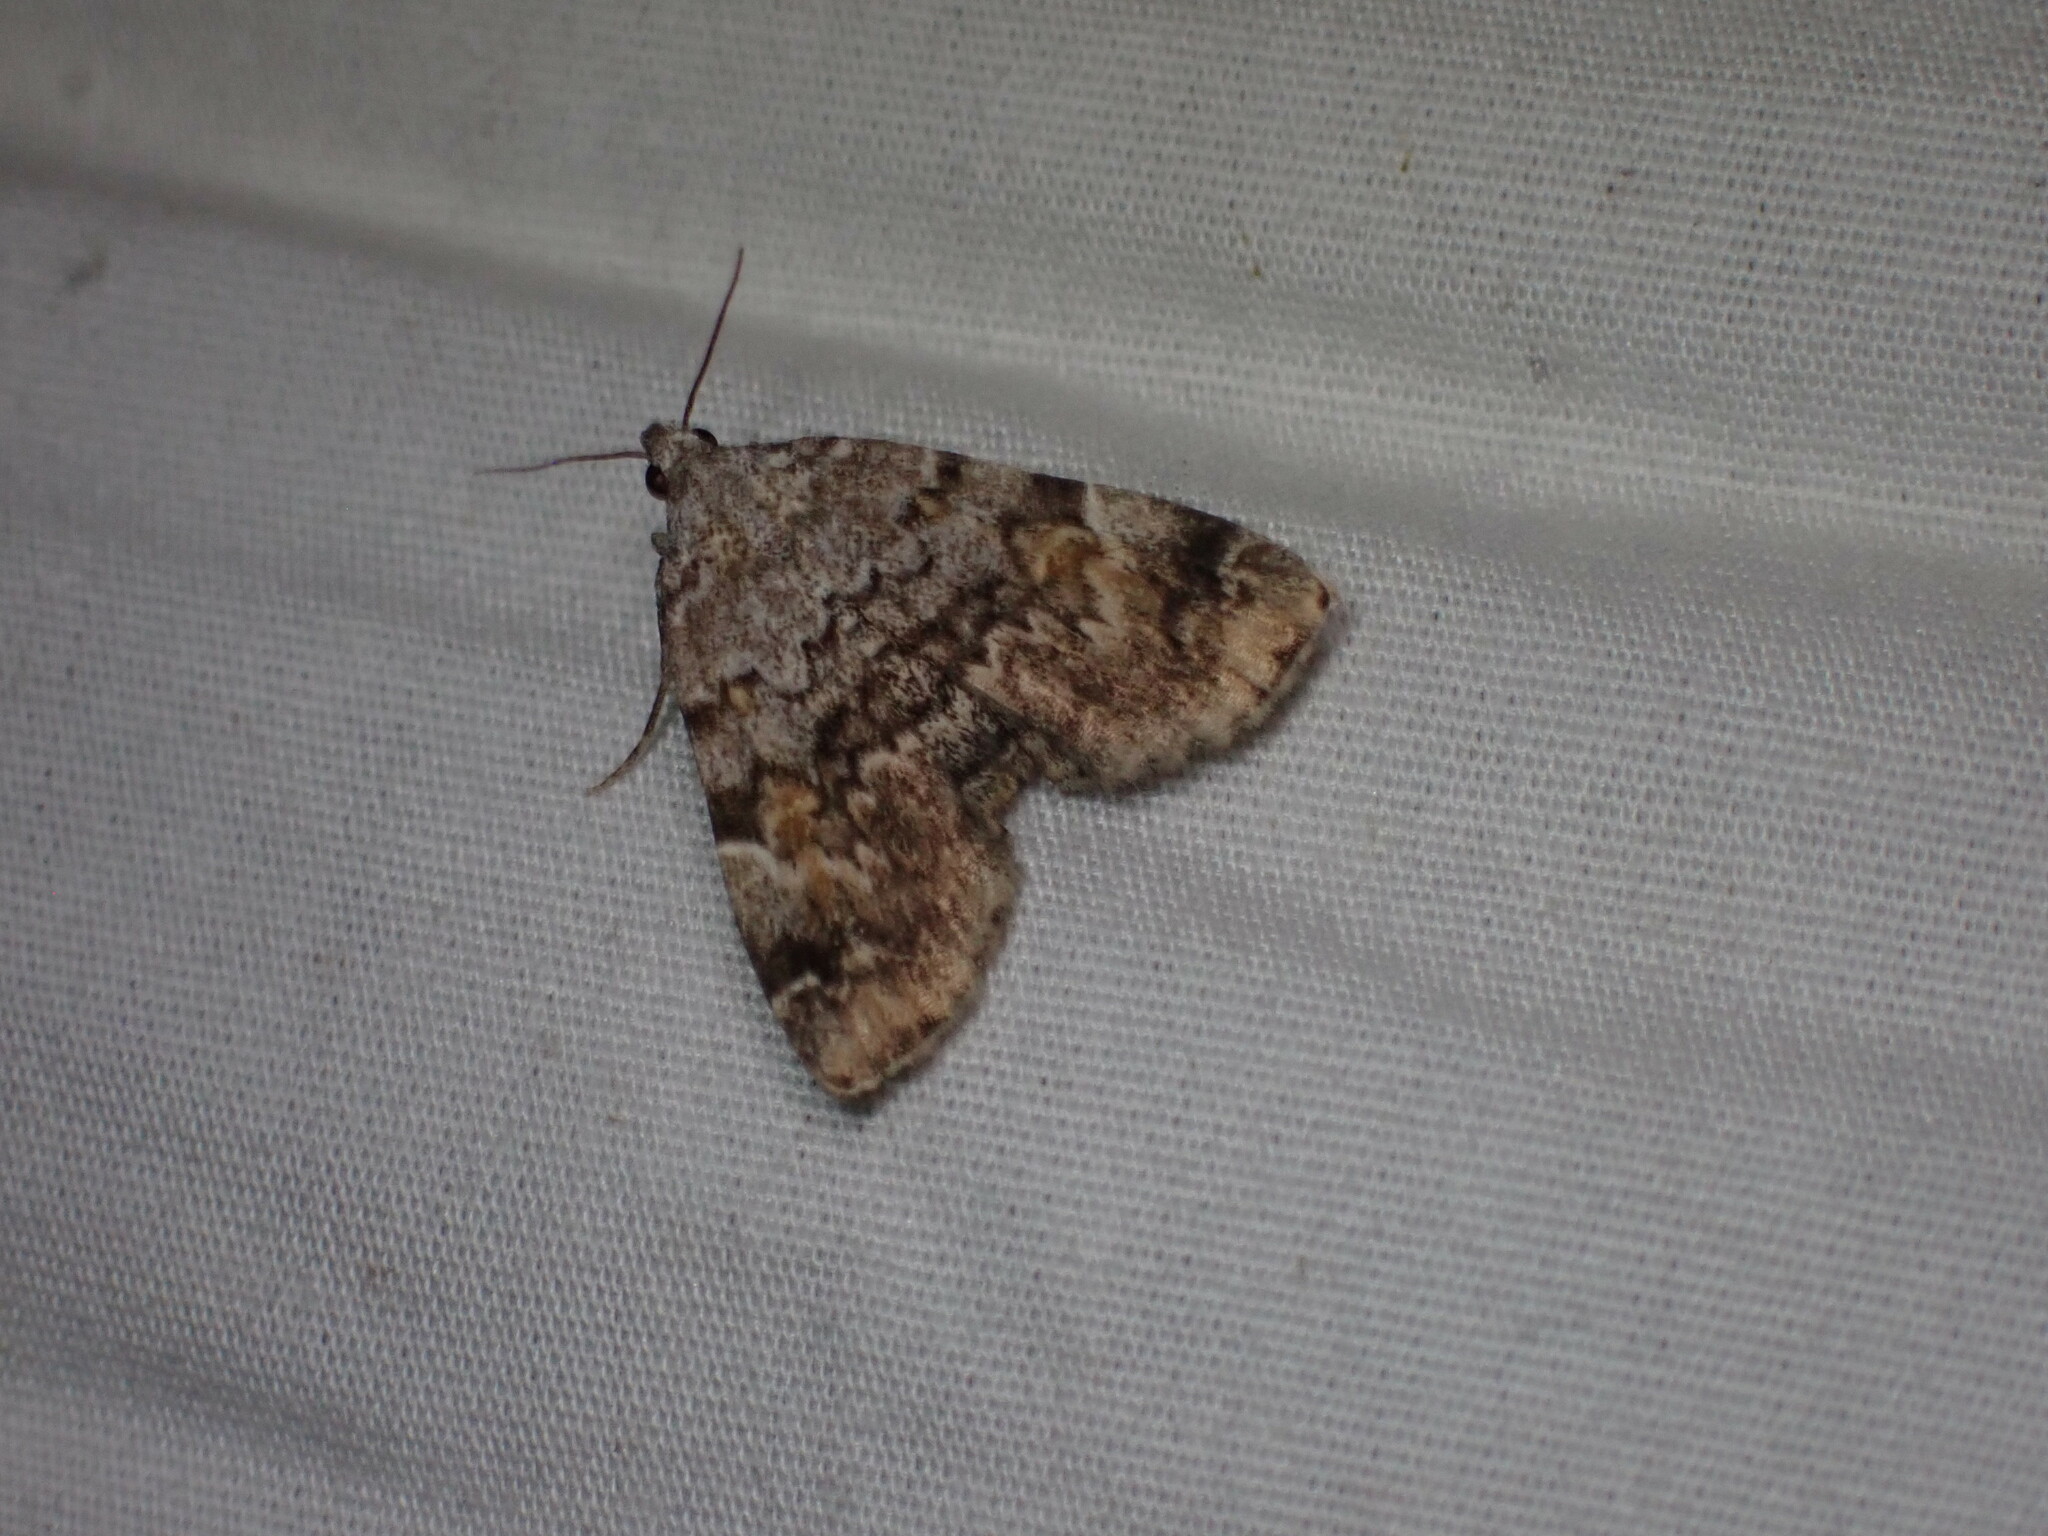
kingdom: Animalia
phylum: Arthropoda
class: Insecta
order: Lepidoptera
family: Erebidae
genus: Idia
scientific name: Idia americalis
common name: American idia moth
